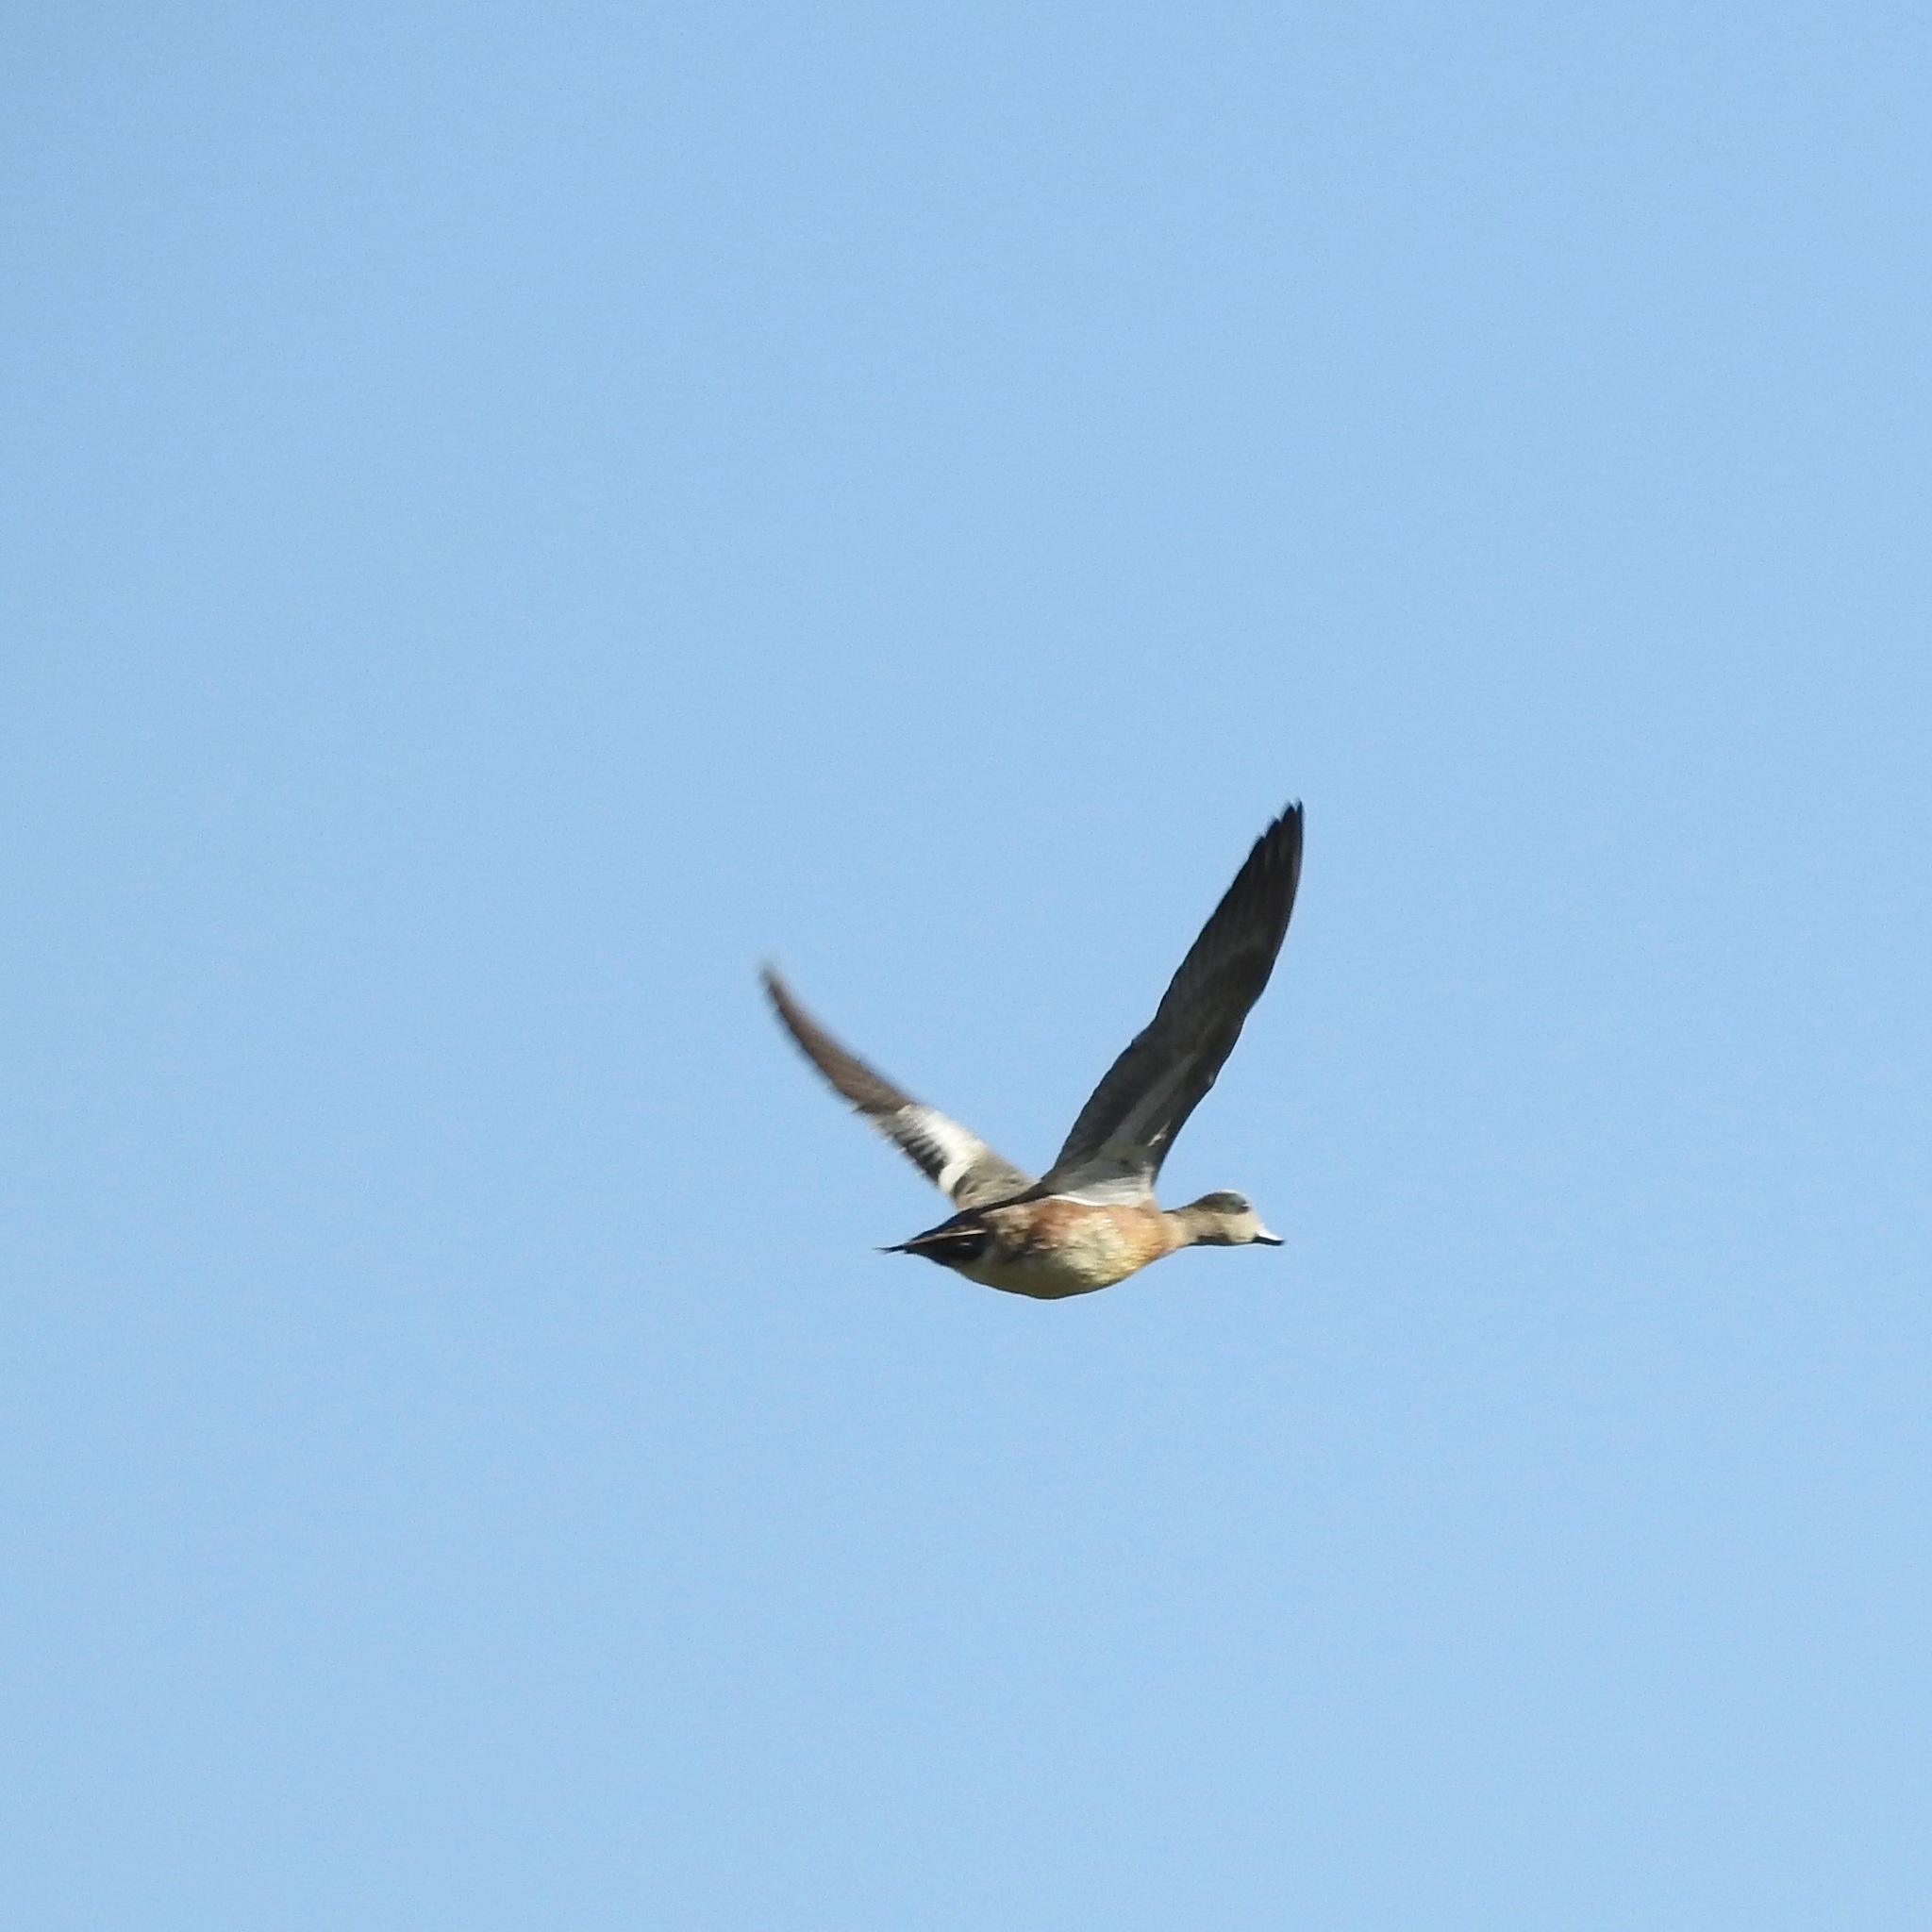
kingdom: Animalia
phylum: Chordata
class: Aves
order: Anseriformes
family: Anatidae
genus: Mareca
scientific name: Mareca americana
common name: American wigeon
